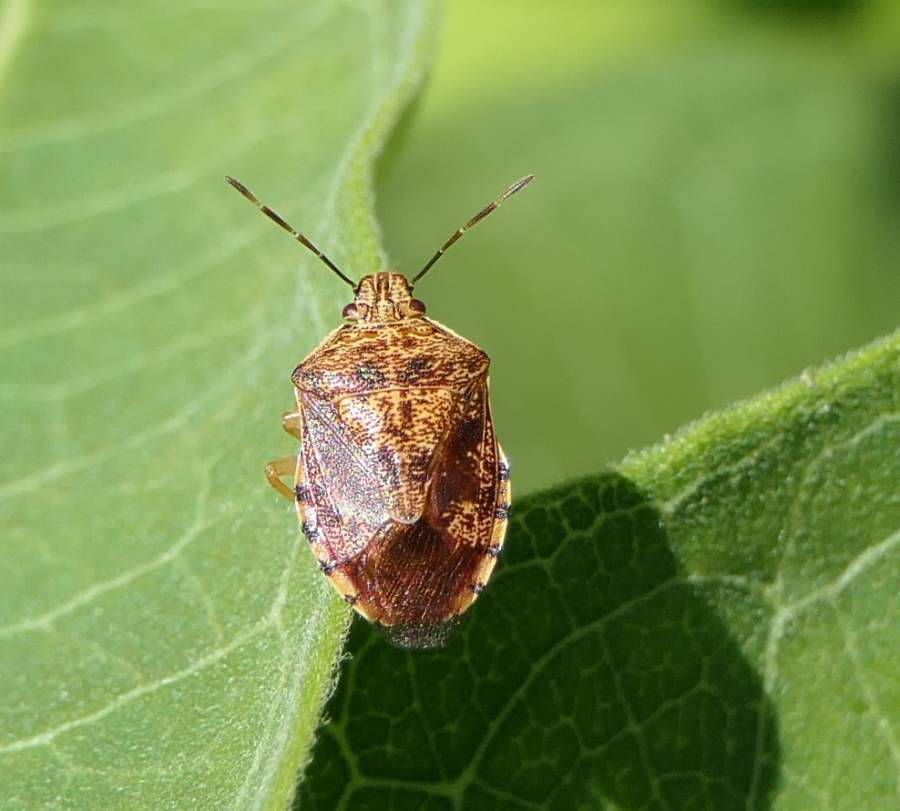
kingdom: Animalia
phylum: Arthropoda
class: Insecta
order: Hemiptera
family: Pentatomidae
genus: Podisus
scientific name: Podisus placidus
